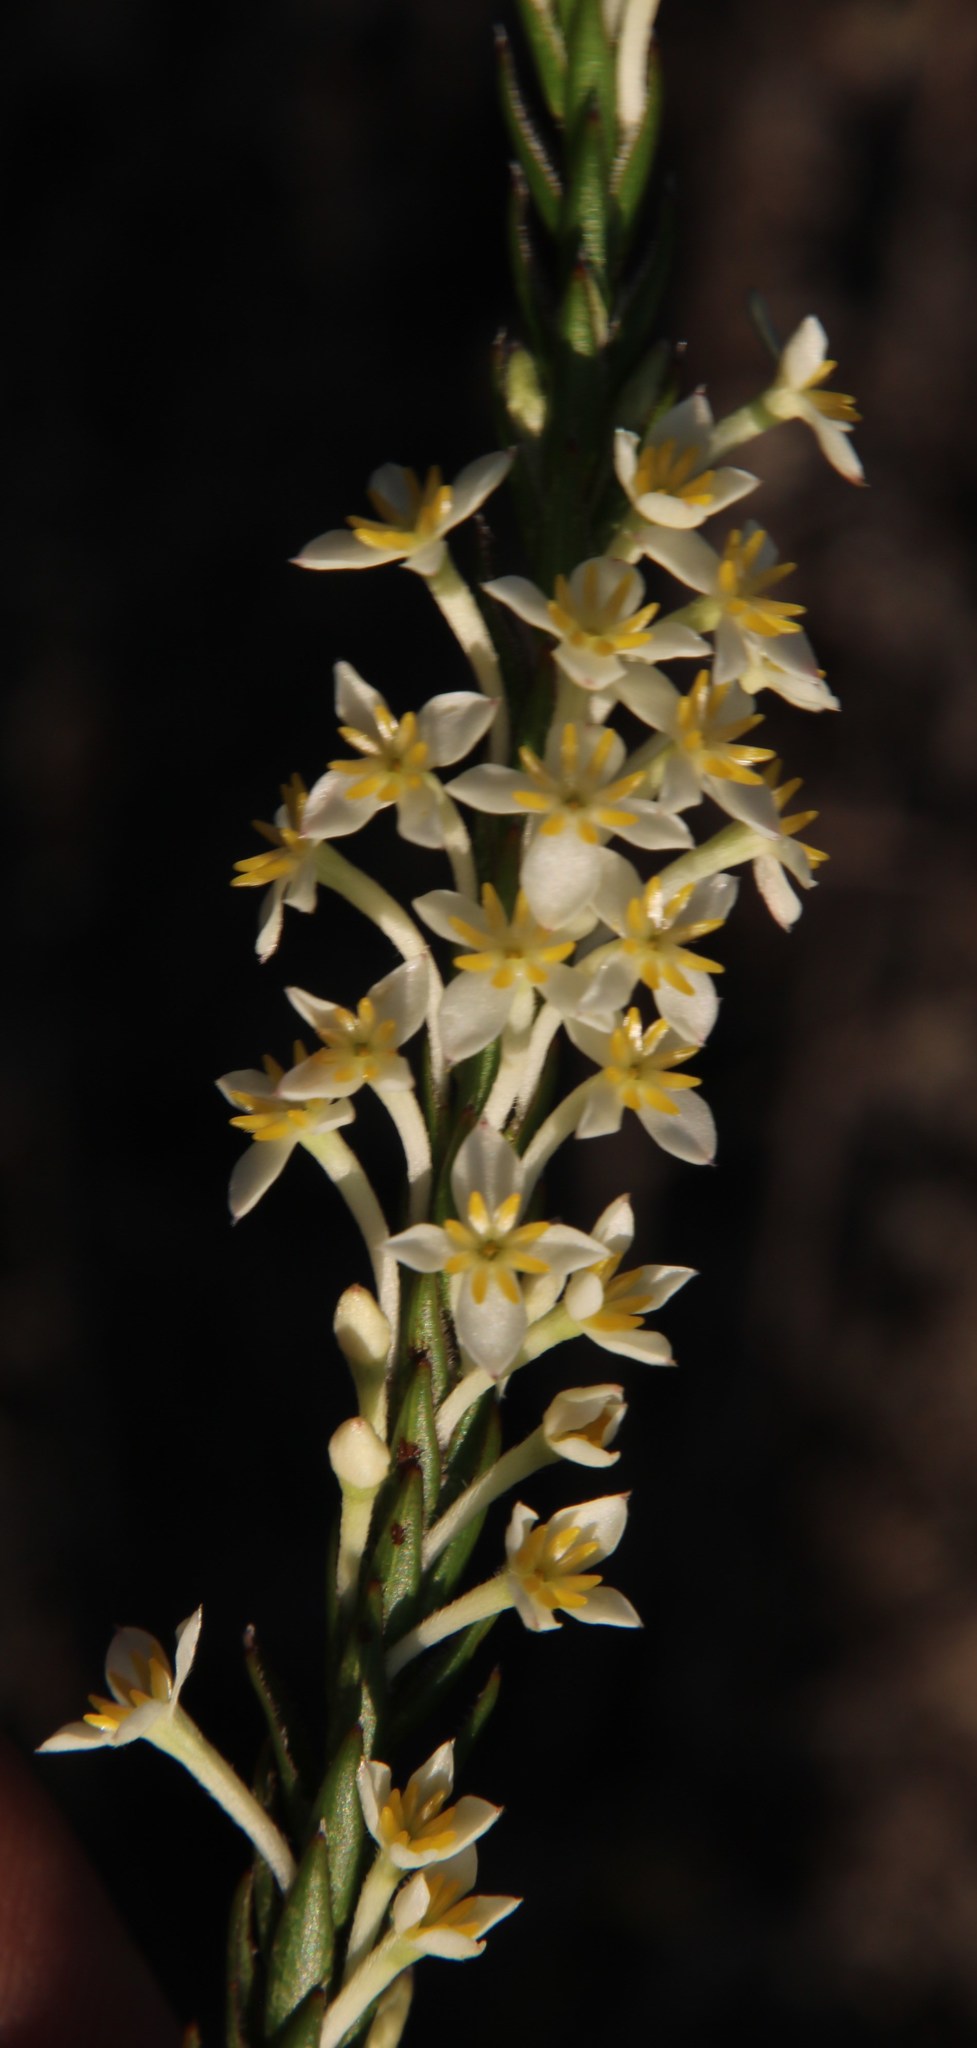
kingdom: Plantae
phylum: Tracheophyta
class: Magnoliopsida
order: Malvales
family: Thymelaeaceae
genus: Struthiola
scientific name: Struthiola ciliata
